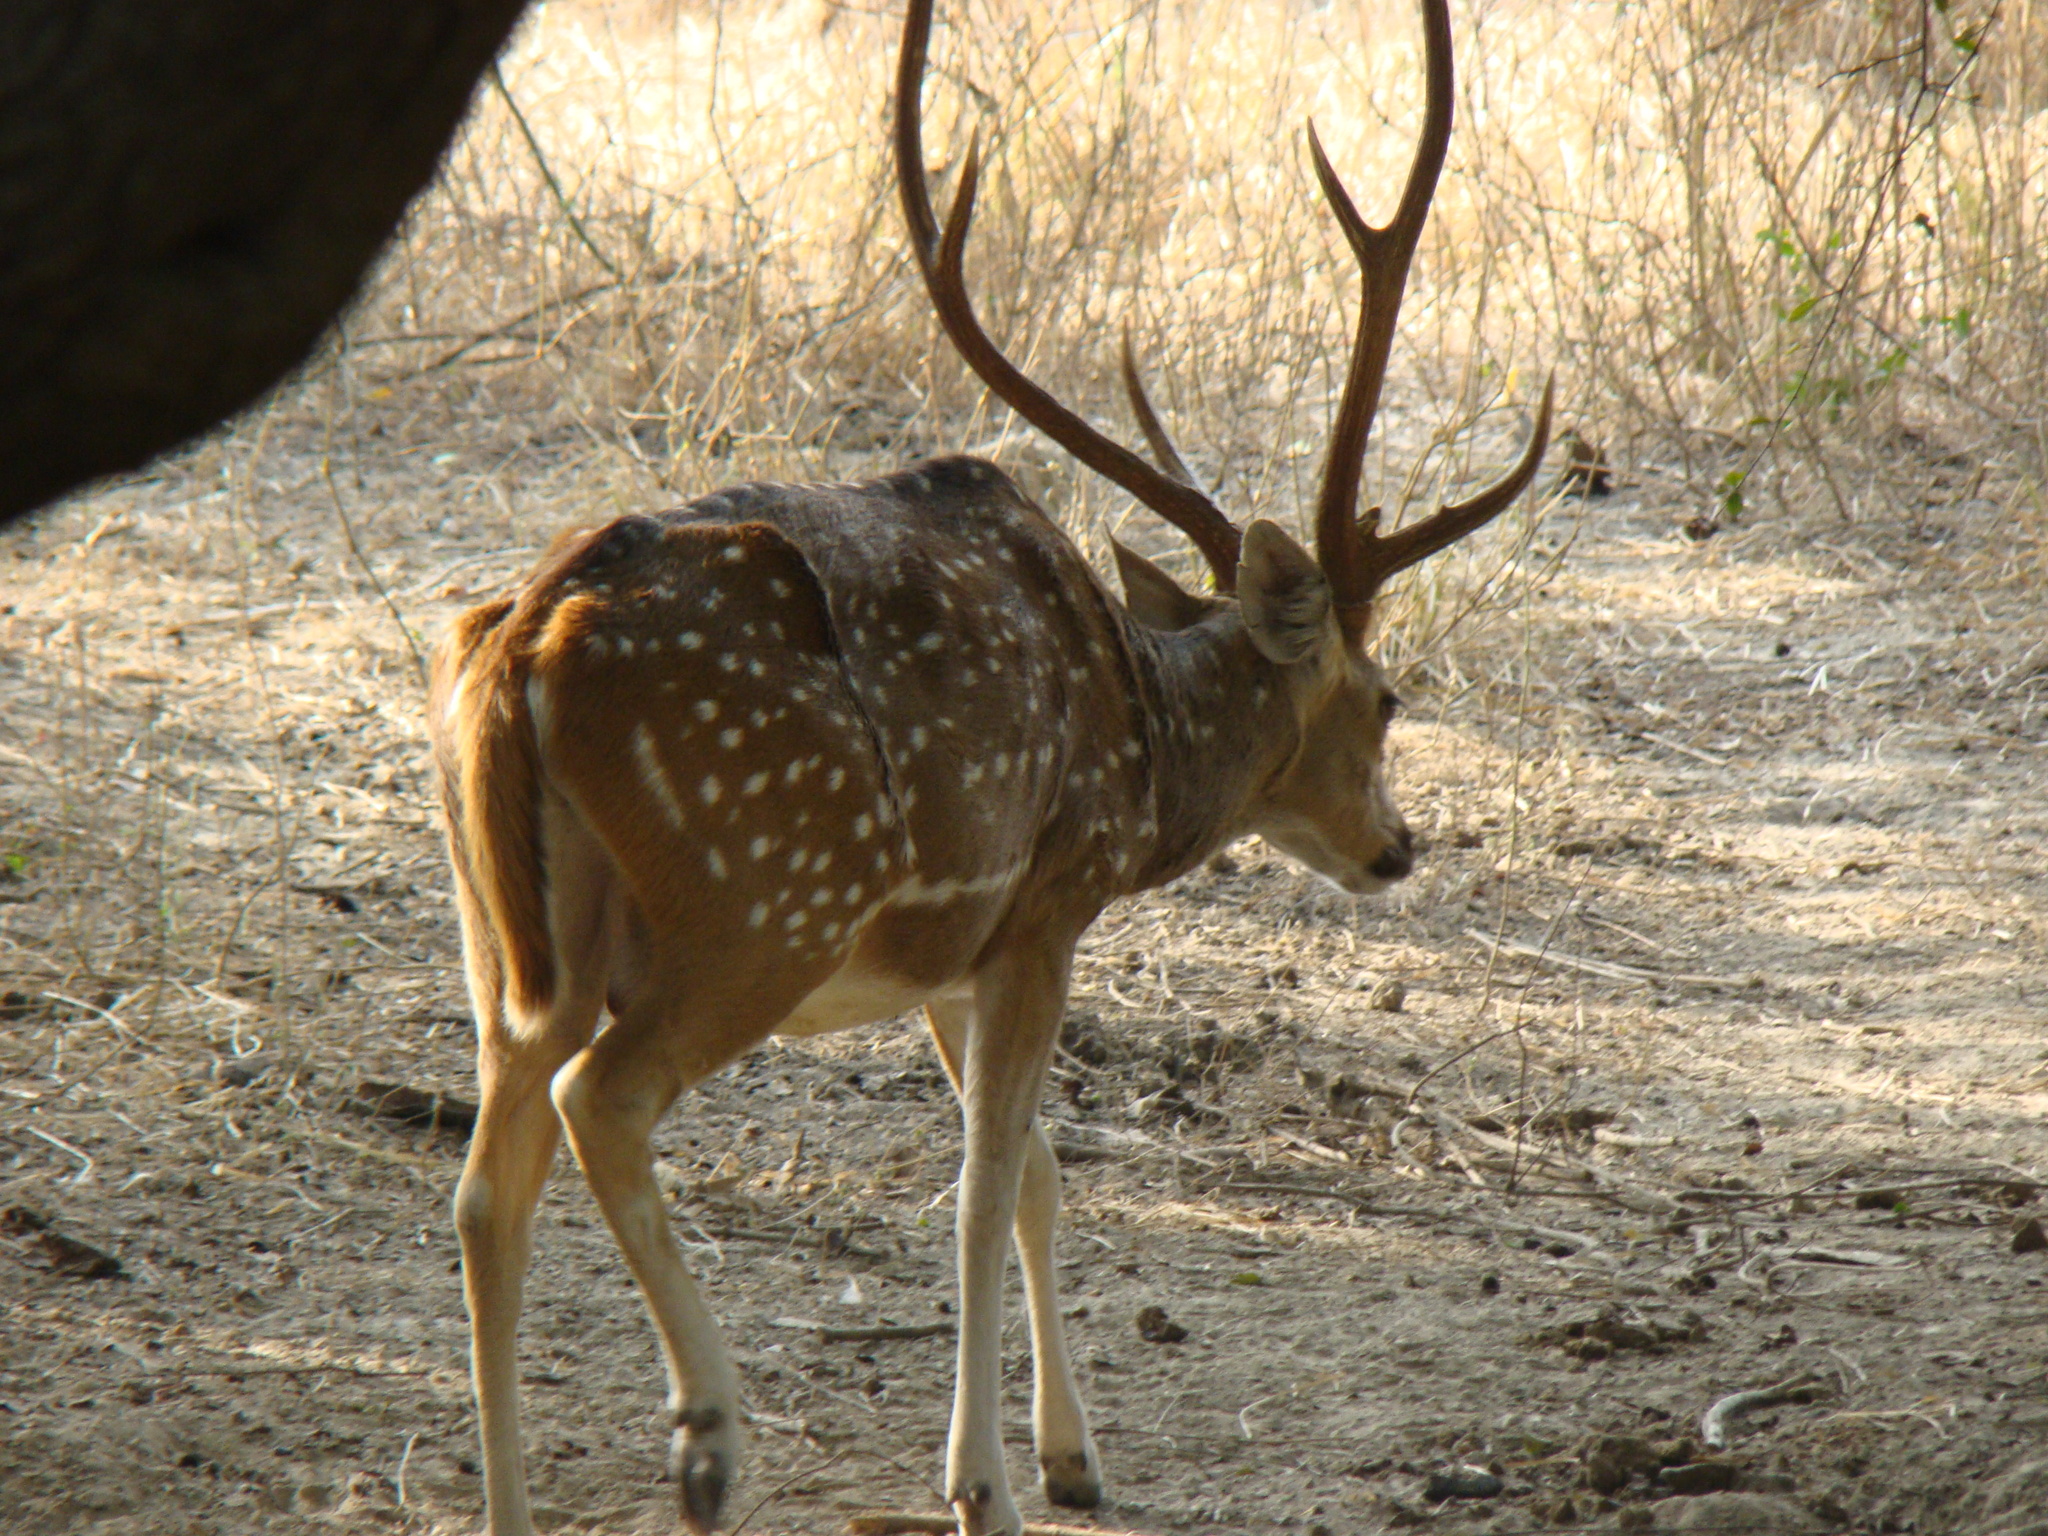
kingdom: Animalia
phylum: Chordata
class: Mammalia
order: Artiodactyla
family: Cervidae
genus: Axis
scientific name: Axis axis
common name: Chital
